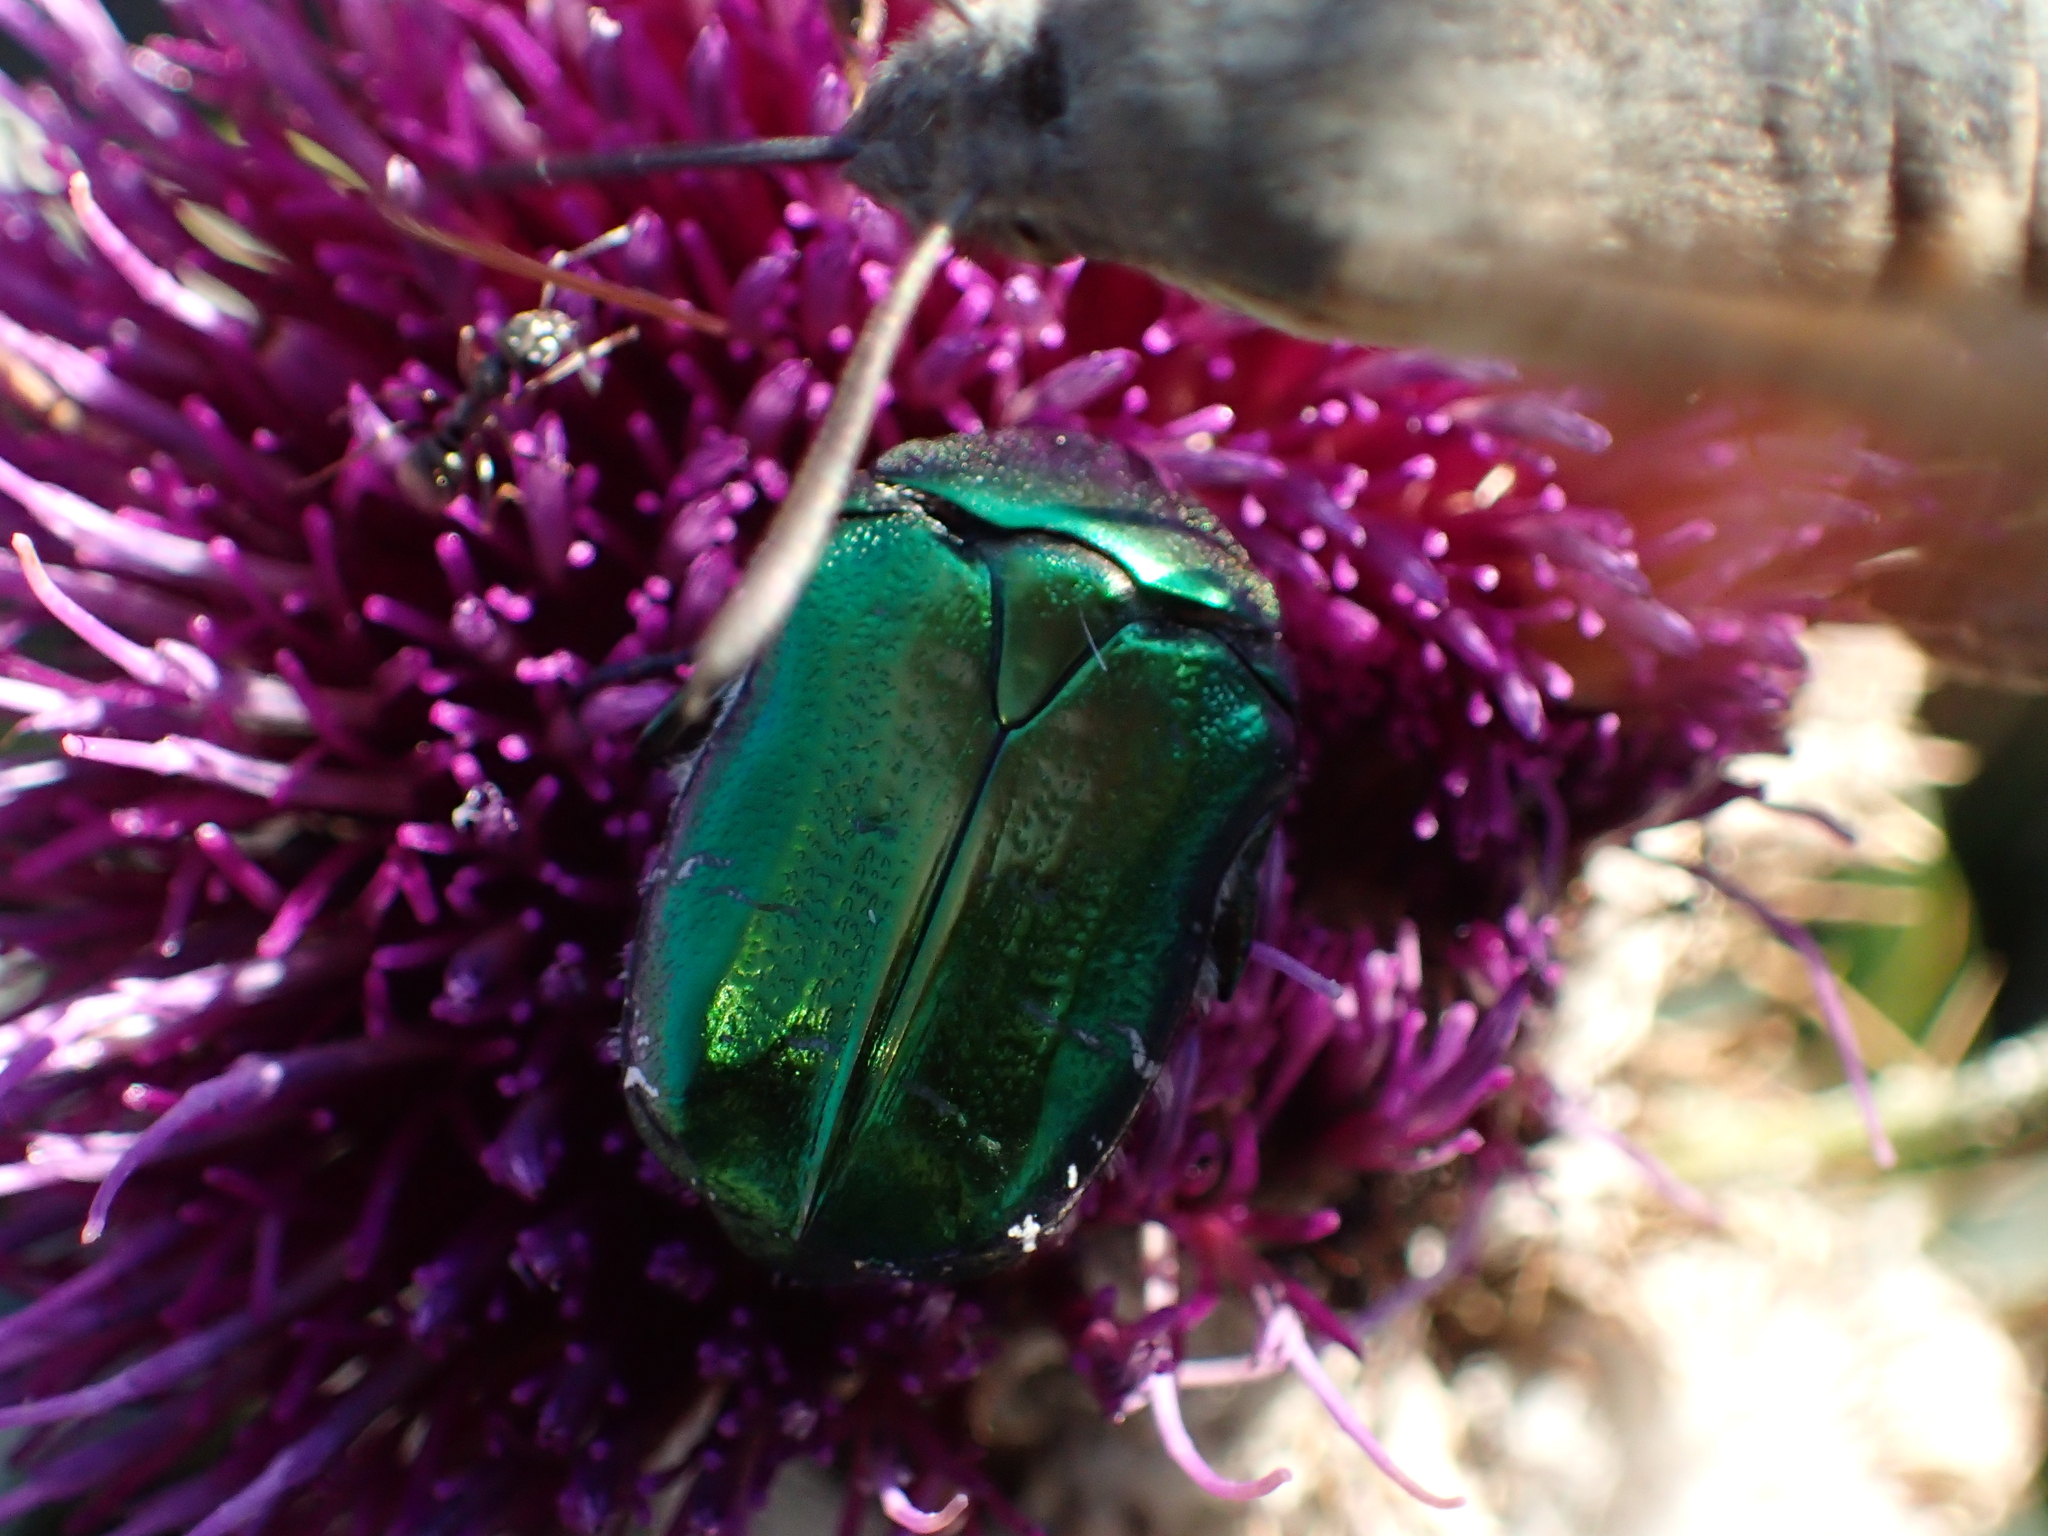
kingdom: Animalia
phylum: Arthropoda
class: Insecta
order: Coleoptera
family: Scarabaeidae
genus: Cetonia
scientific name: Cetonia aurata
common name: Rose chafer
